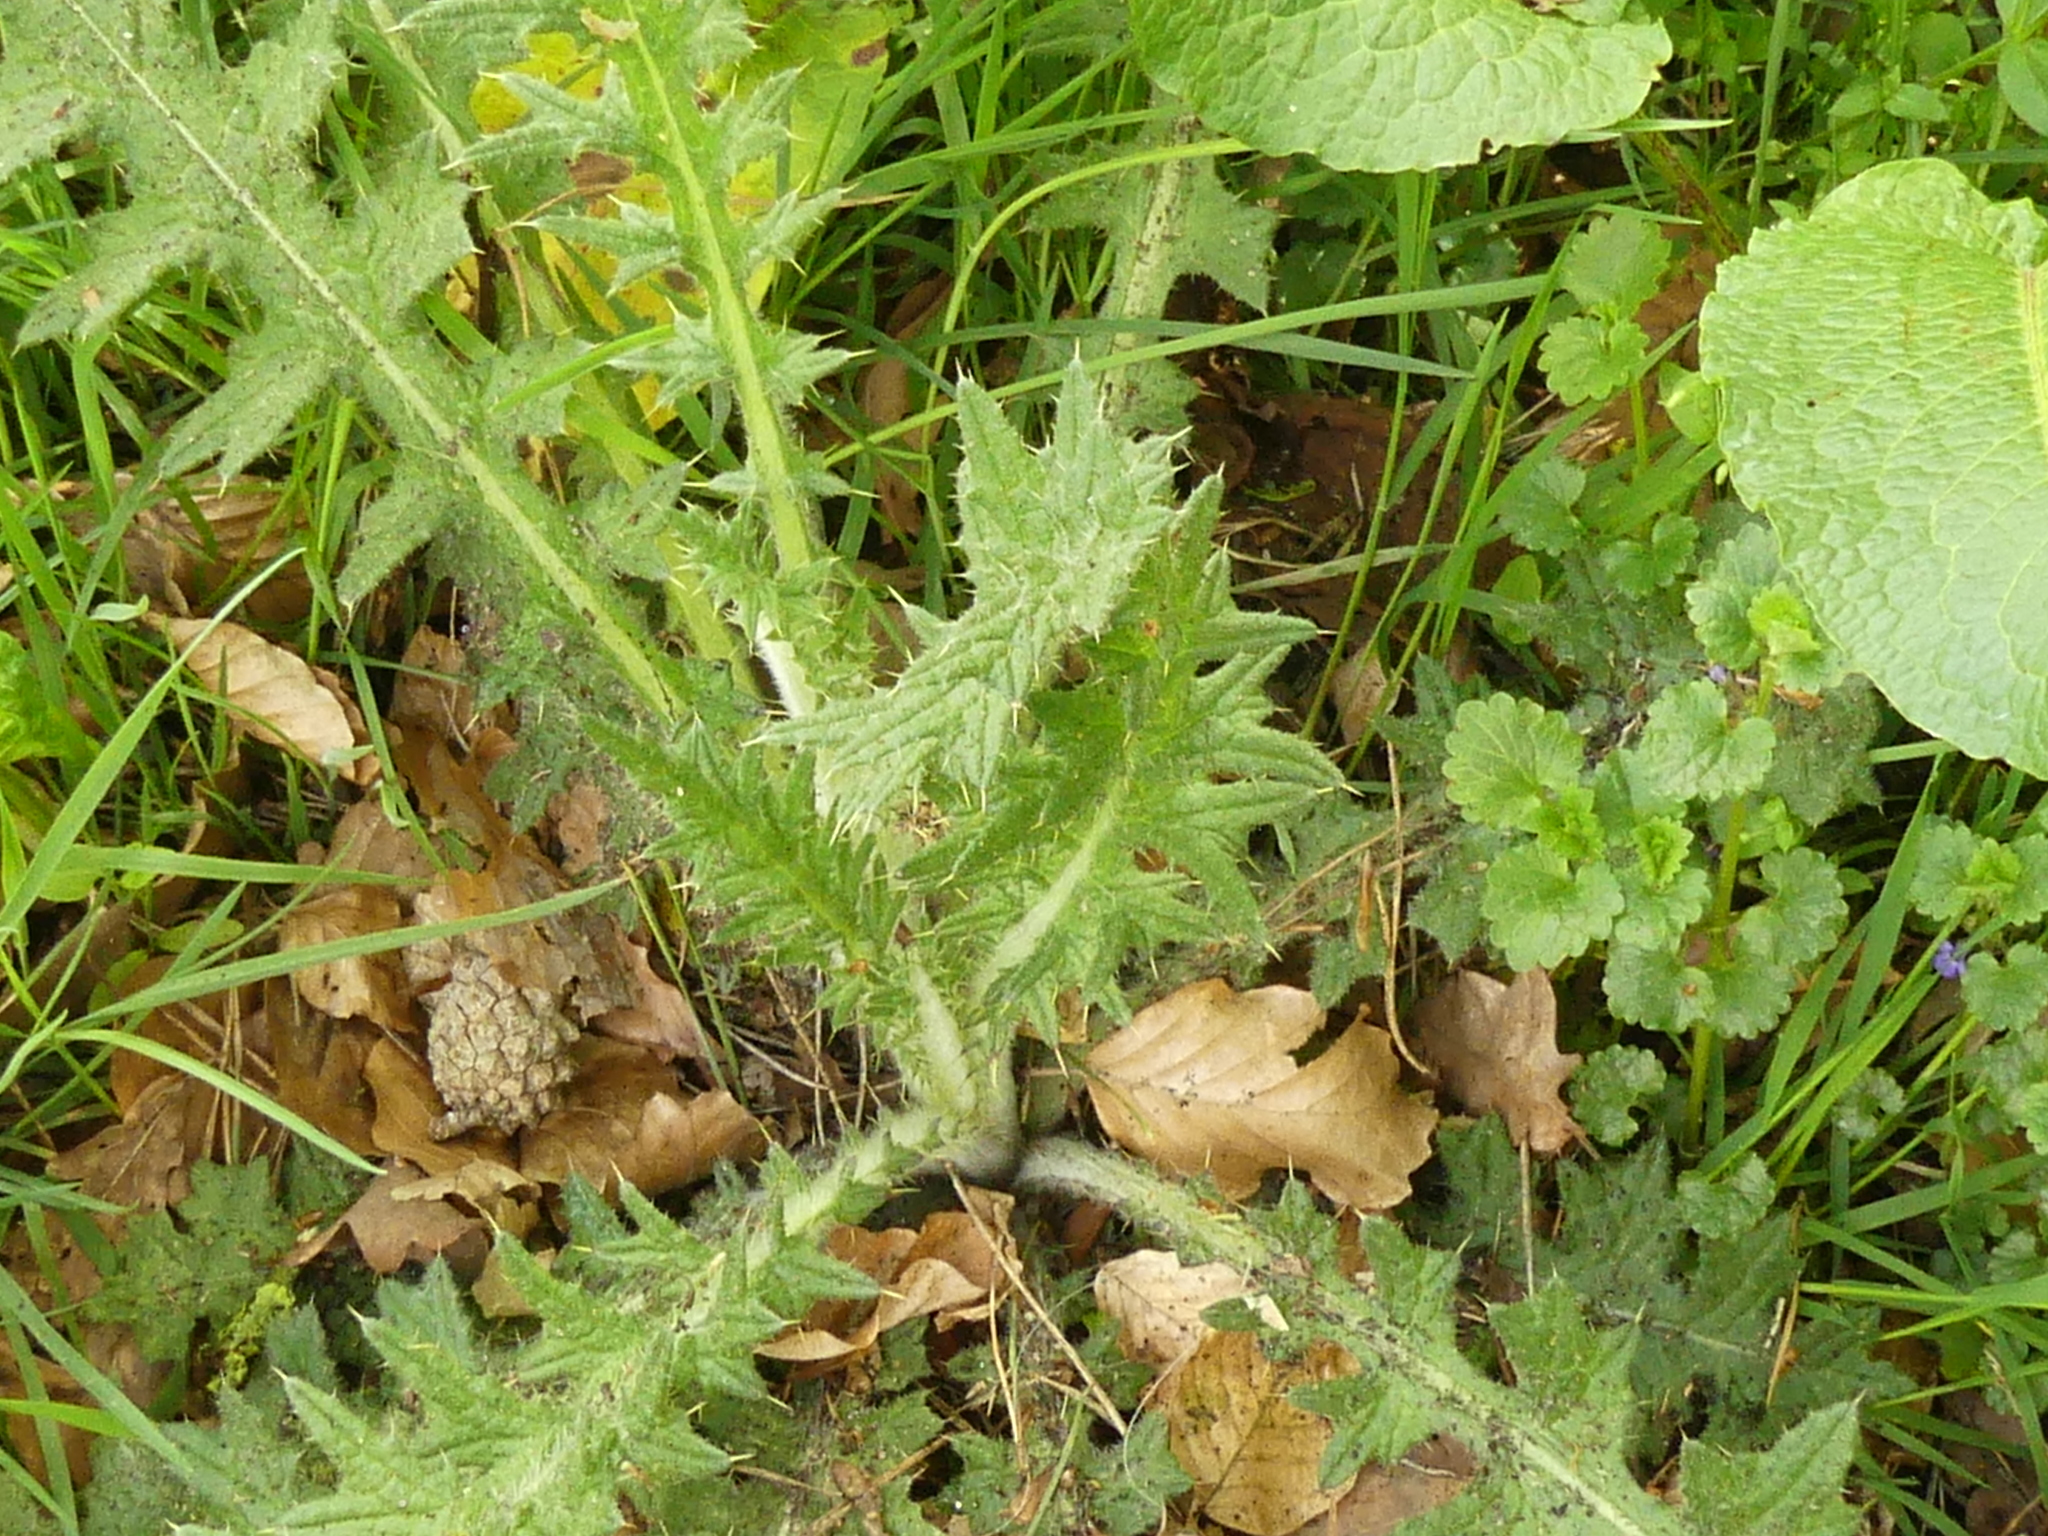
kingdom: Plantae
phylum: Tracheophyta
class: Magnoliopsida
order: Asterales
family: Asteraceae
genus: Cirsium
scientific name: Cirsium vulgare
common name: Bull thistle
